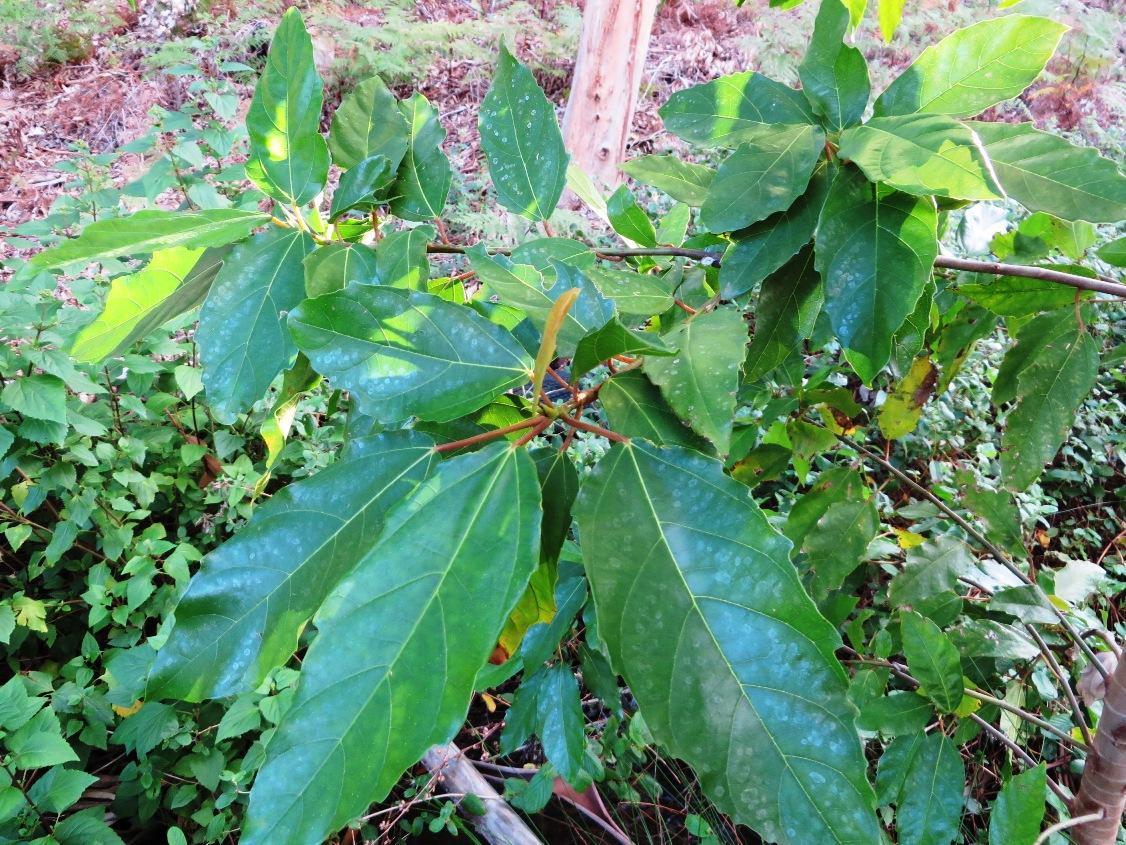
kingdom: Plantae
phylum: Tracheophyta
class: Magnoliopsida
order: Rosales
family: Moraceae
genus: Ficus
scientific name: Ficus sur
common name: Cape fig
